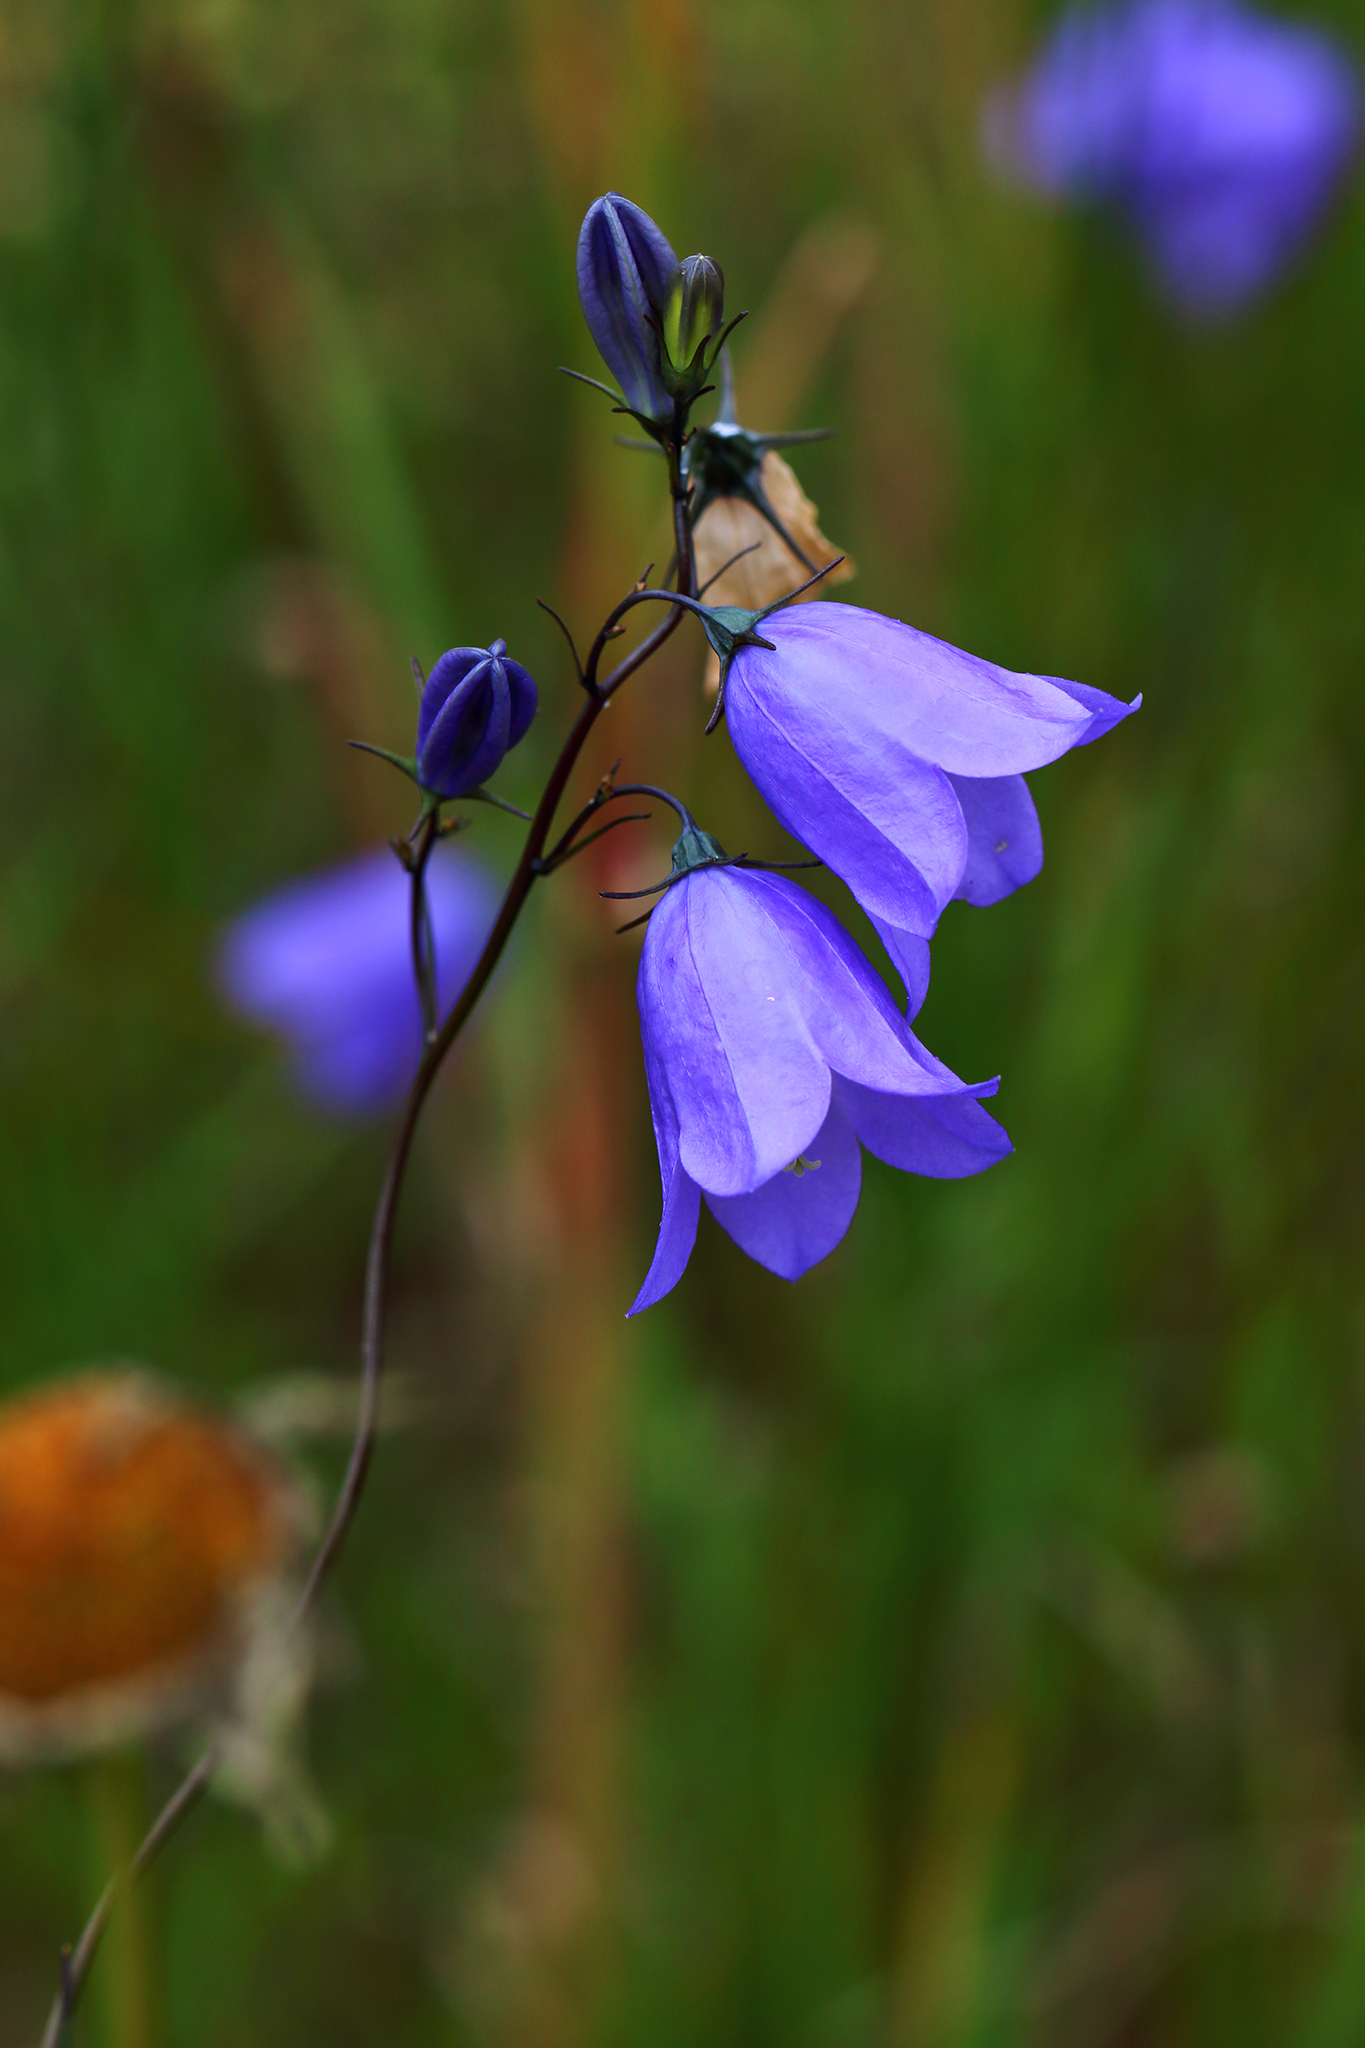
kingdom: Plantae
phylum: Tracheophyta
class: Magnoliopsida
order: Asterales
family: Campanulaceae
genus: Campanula
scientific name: Campanula rotundifolia
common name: Harebell
